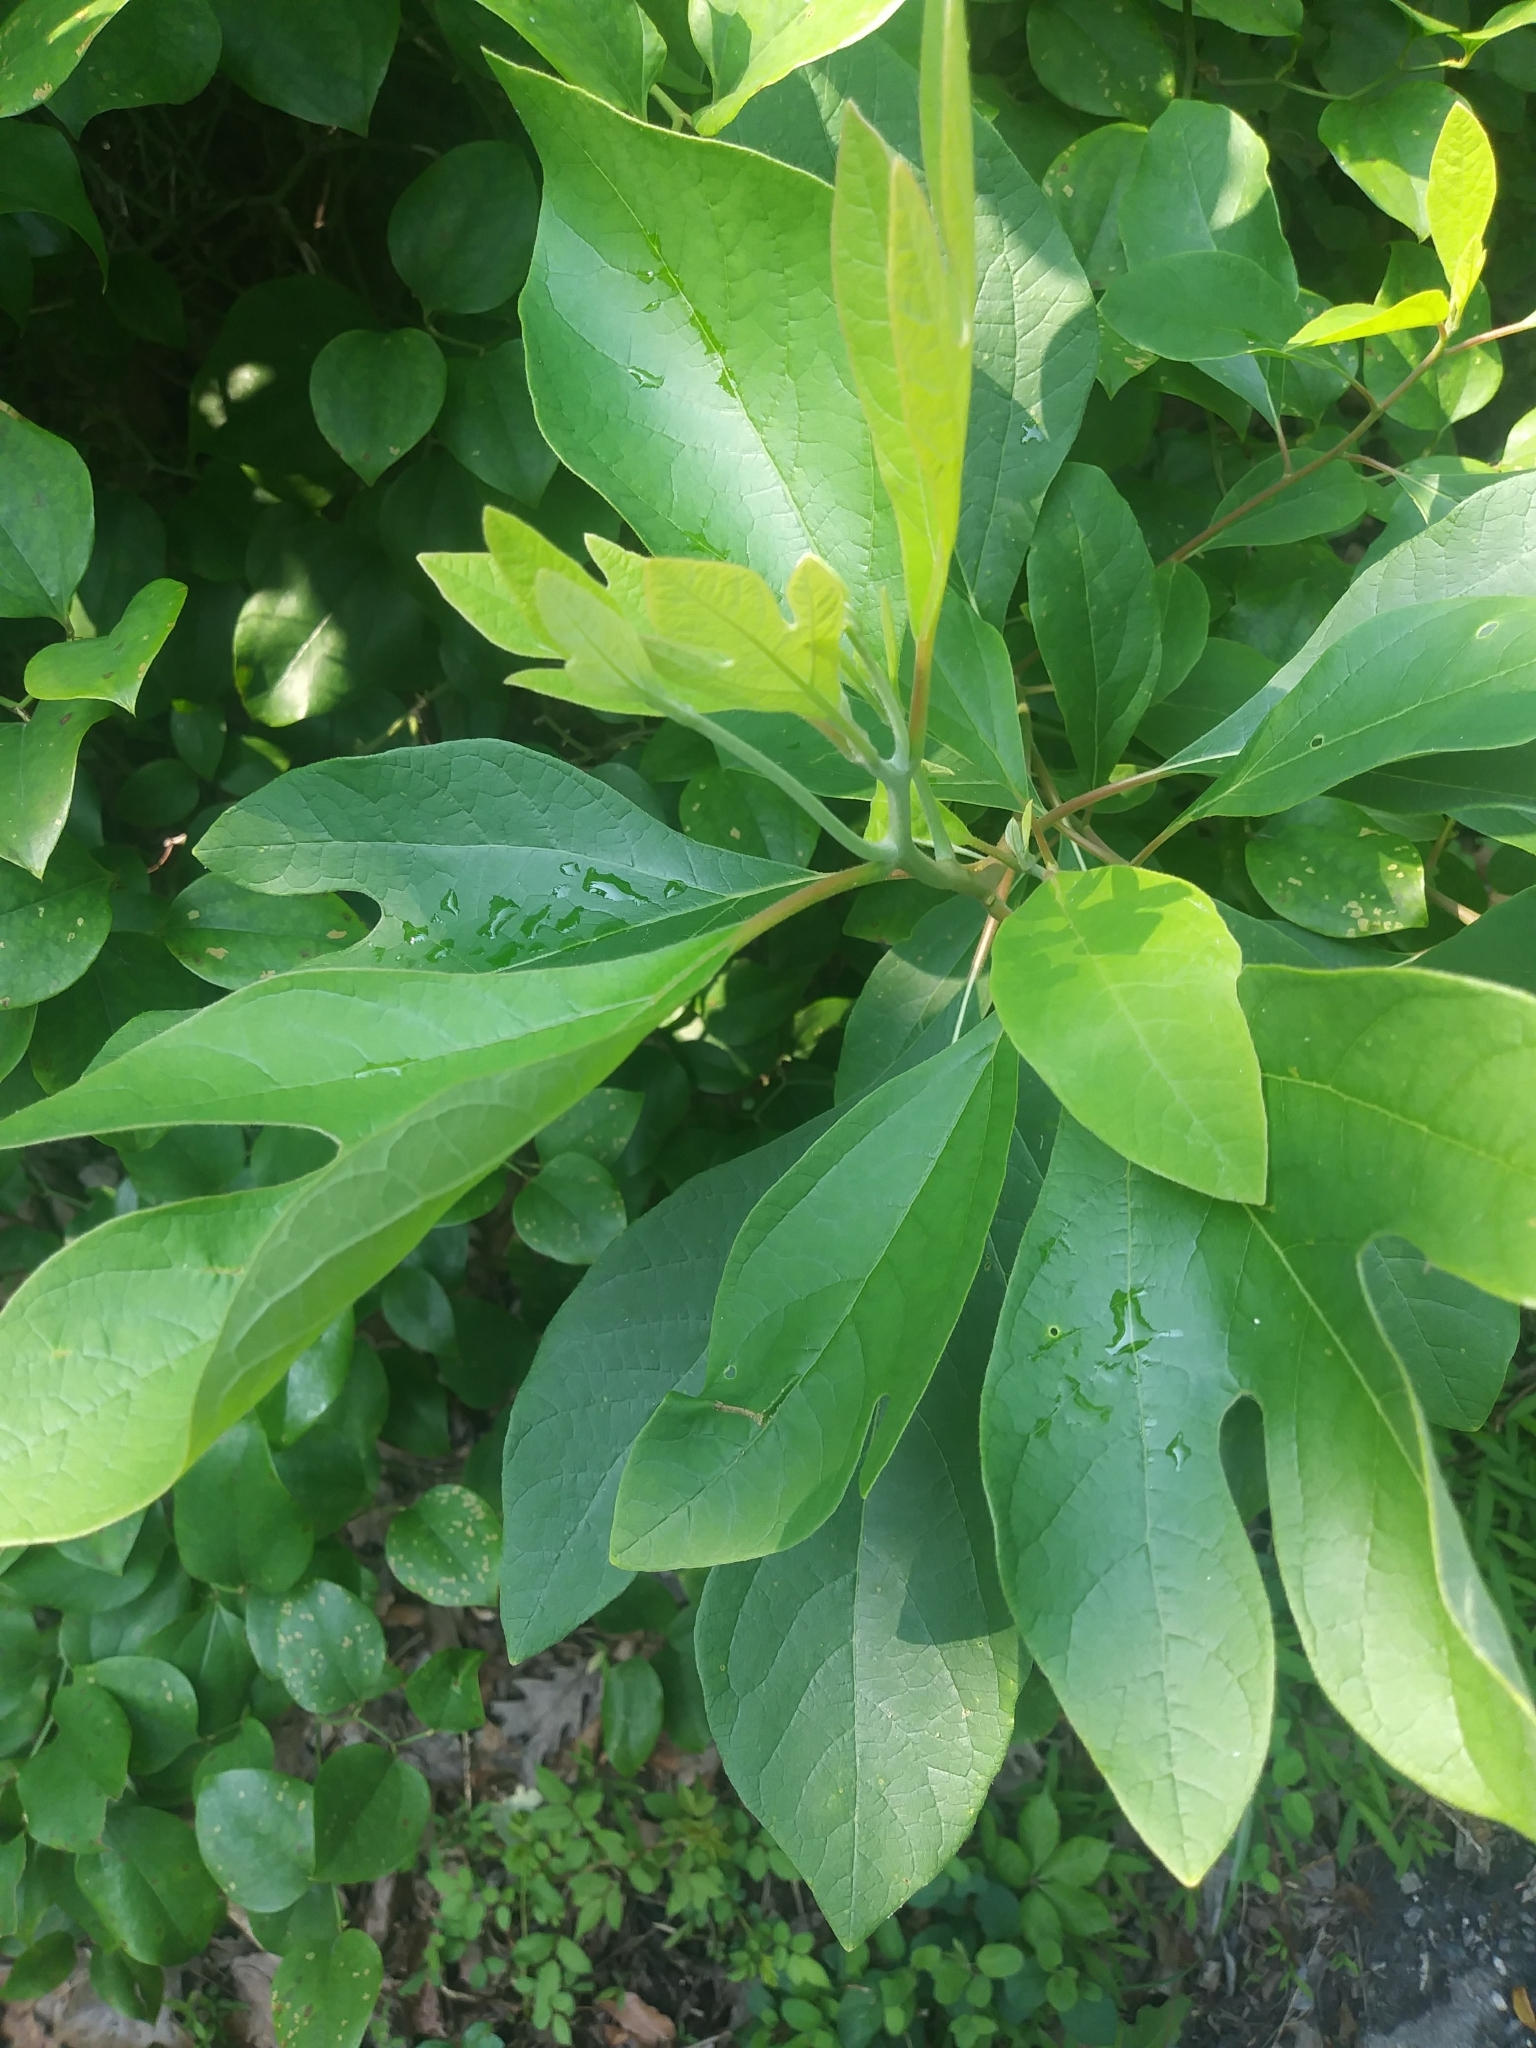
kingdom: Plantae
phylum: Tracheophyta
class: Magnoliopsida
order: Laurales
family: Lauraceae
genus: Sassafras
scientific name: Sassafras albidum
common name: Sassafras
